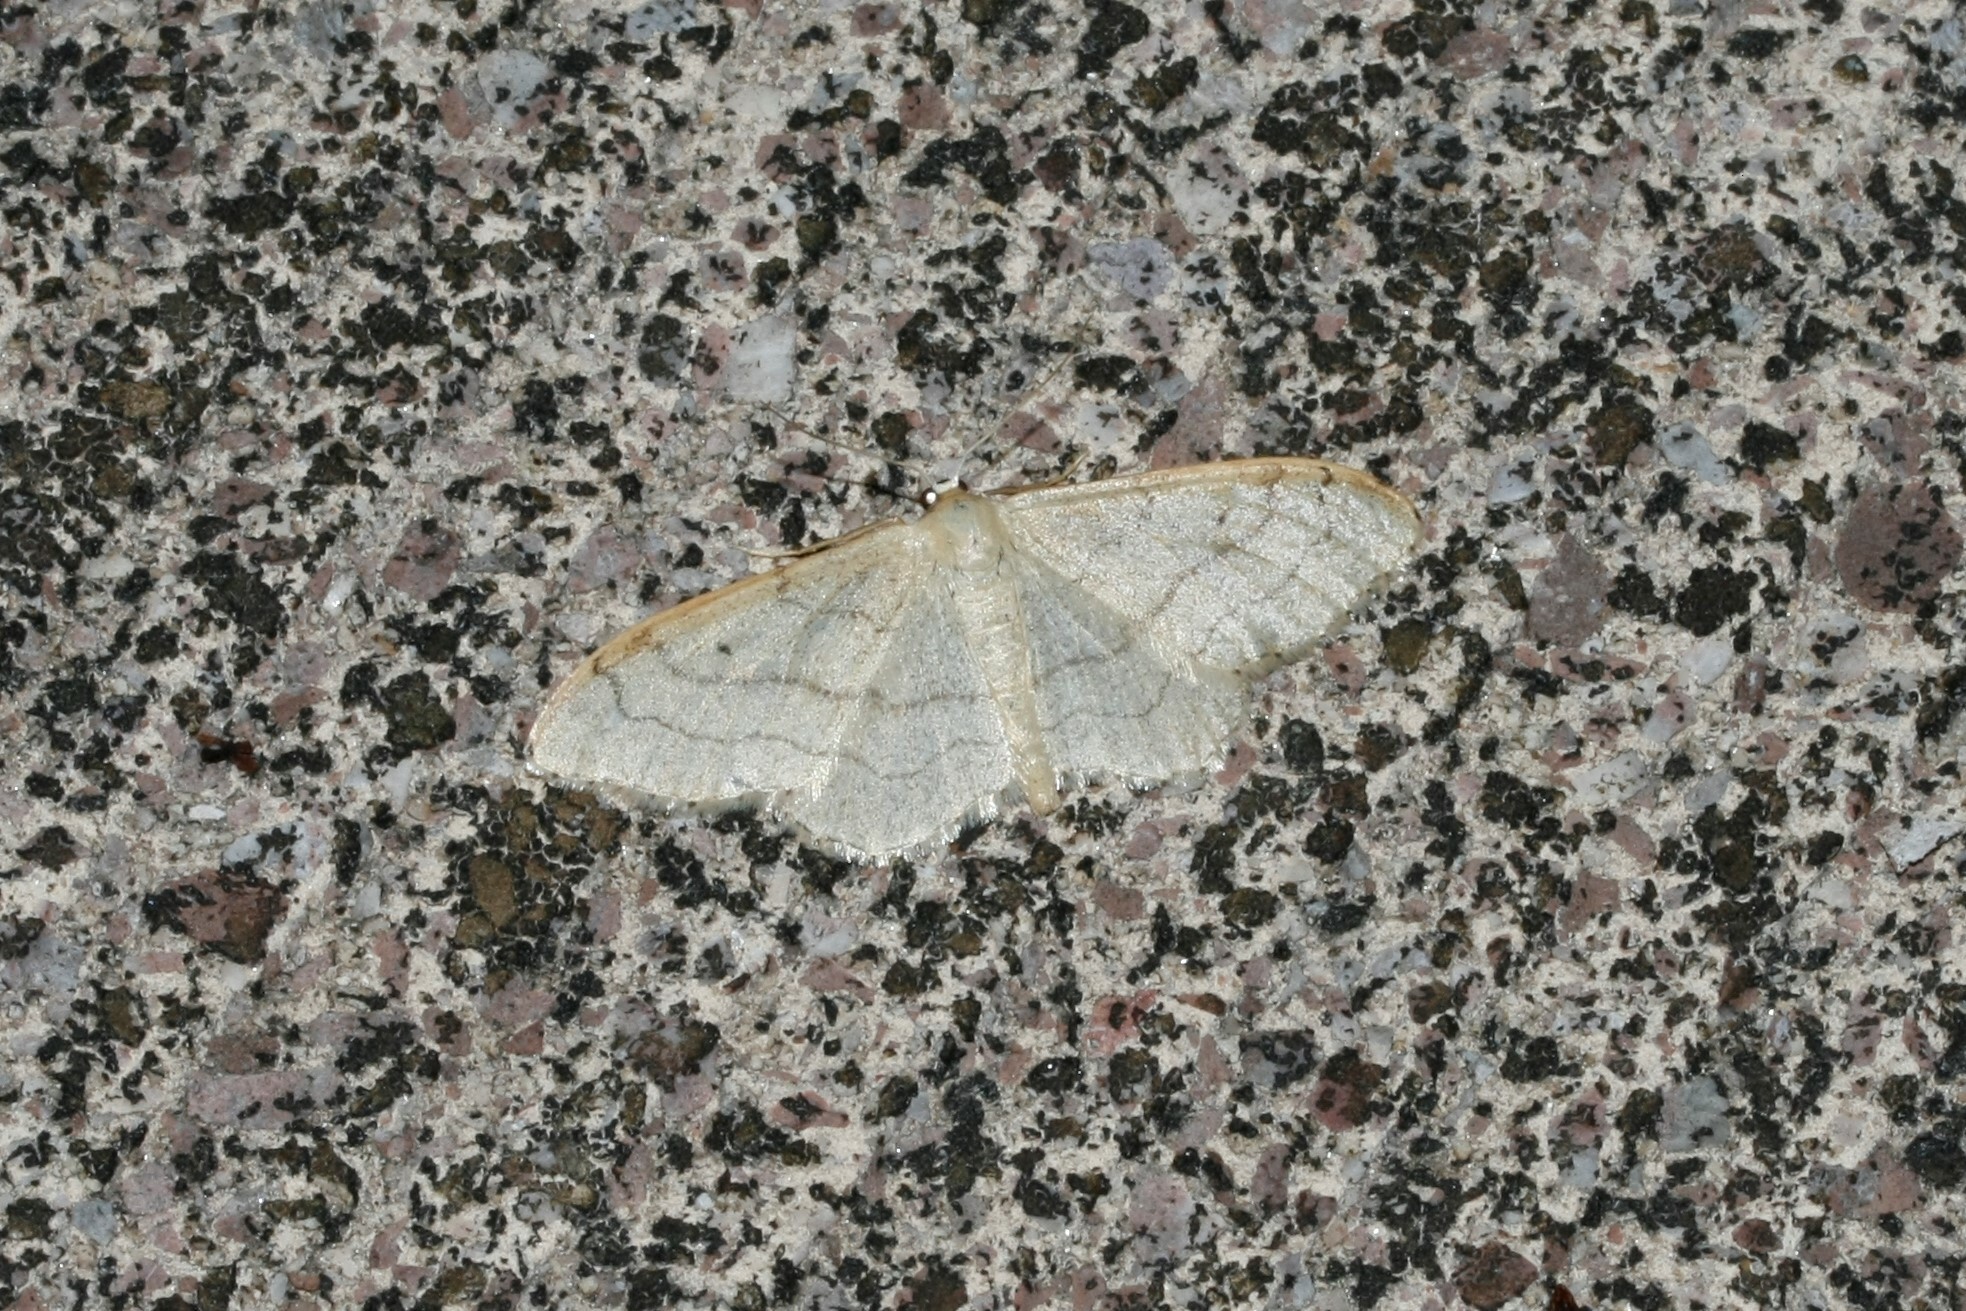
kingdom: Animalia
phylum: Arthropoda
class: Insecta
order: Lepidoptera
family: Geometridae
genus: Idaea
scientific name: Idaea aversata
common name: Riband wave
